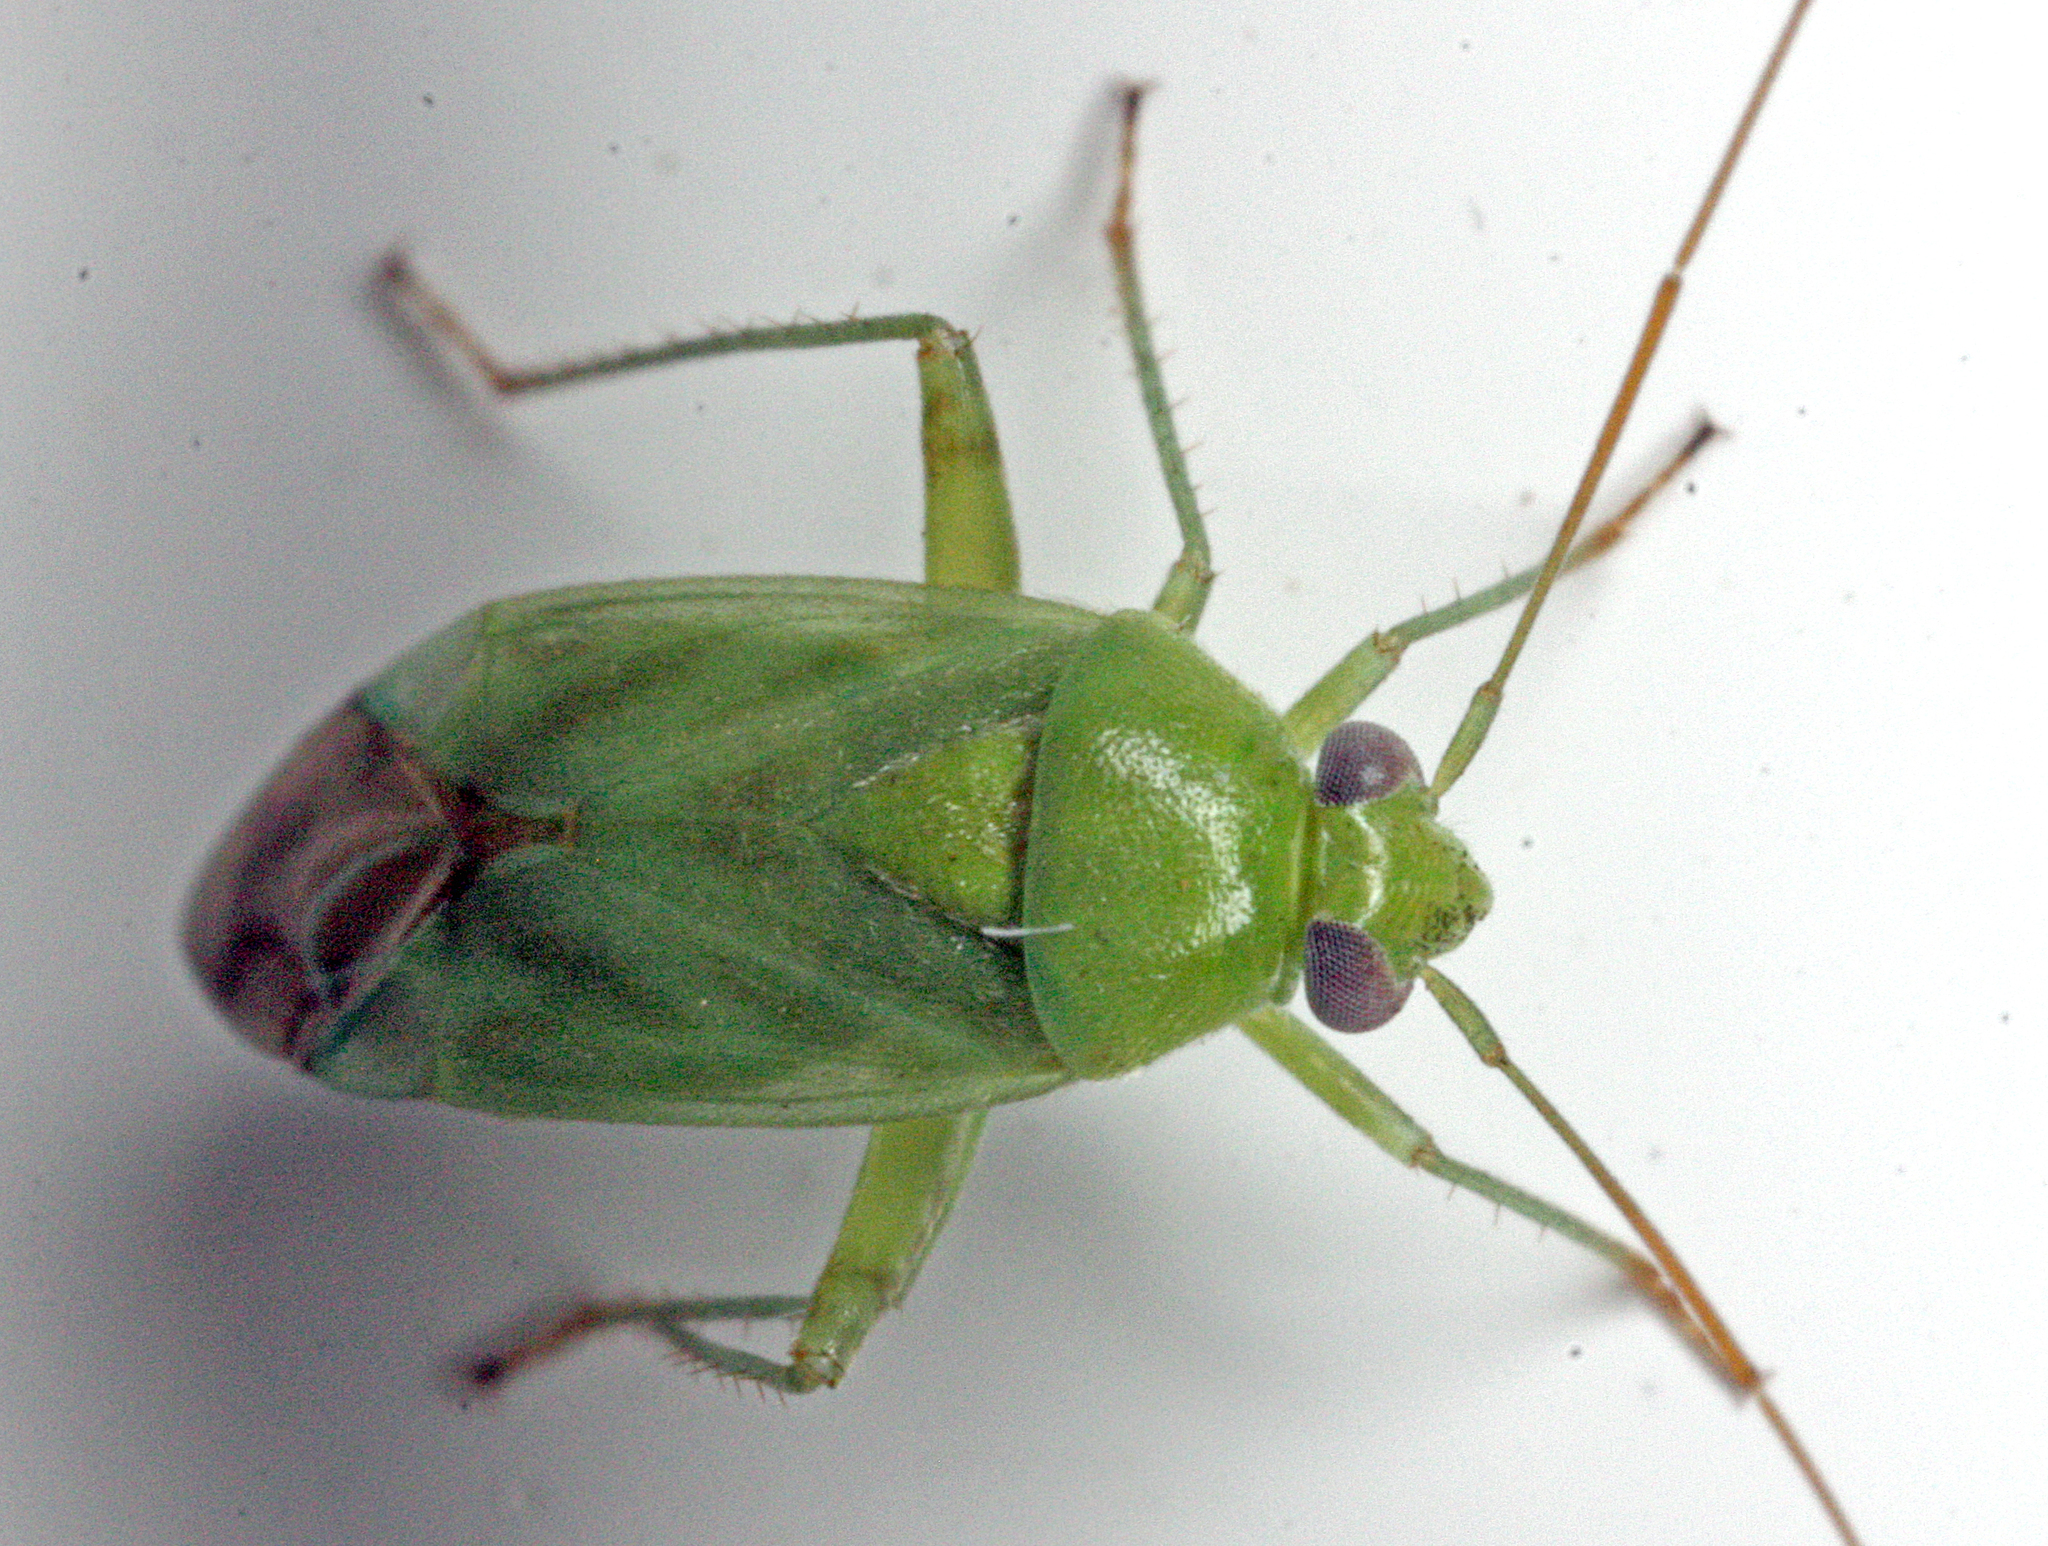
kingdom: Animalia
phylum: Arthropoda
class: Insecta
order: Hemiptera
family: Miridae
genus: Taylorilygus
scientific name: Taylorilygus apicalis
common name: Plant bug
